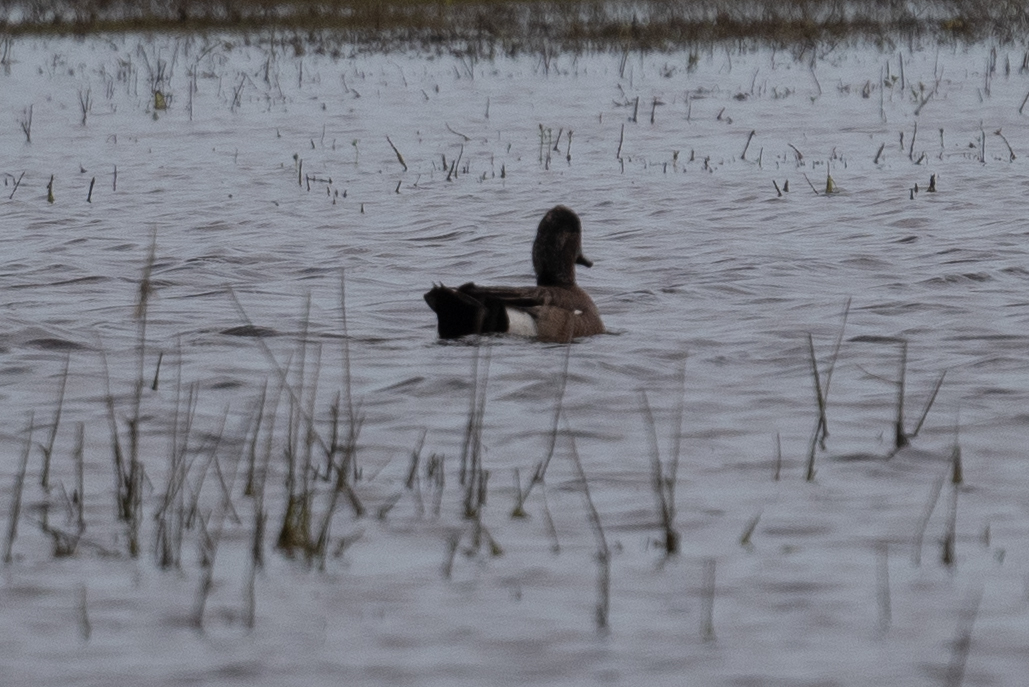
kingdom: Animalia
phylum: Chordata
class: Aves
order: Anseriformes
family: Anatidae
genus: Mareca
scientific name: Mareca americana
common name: American wigeon
